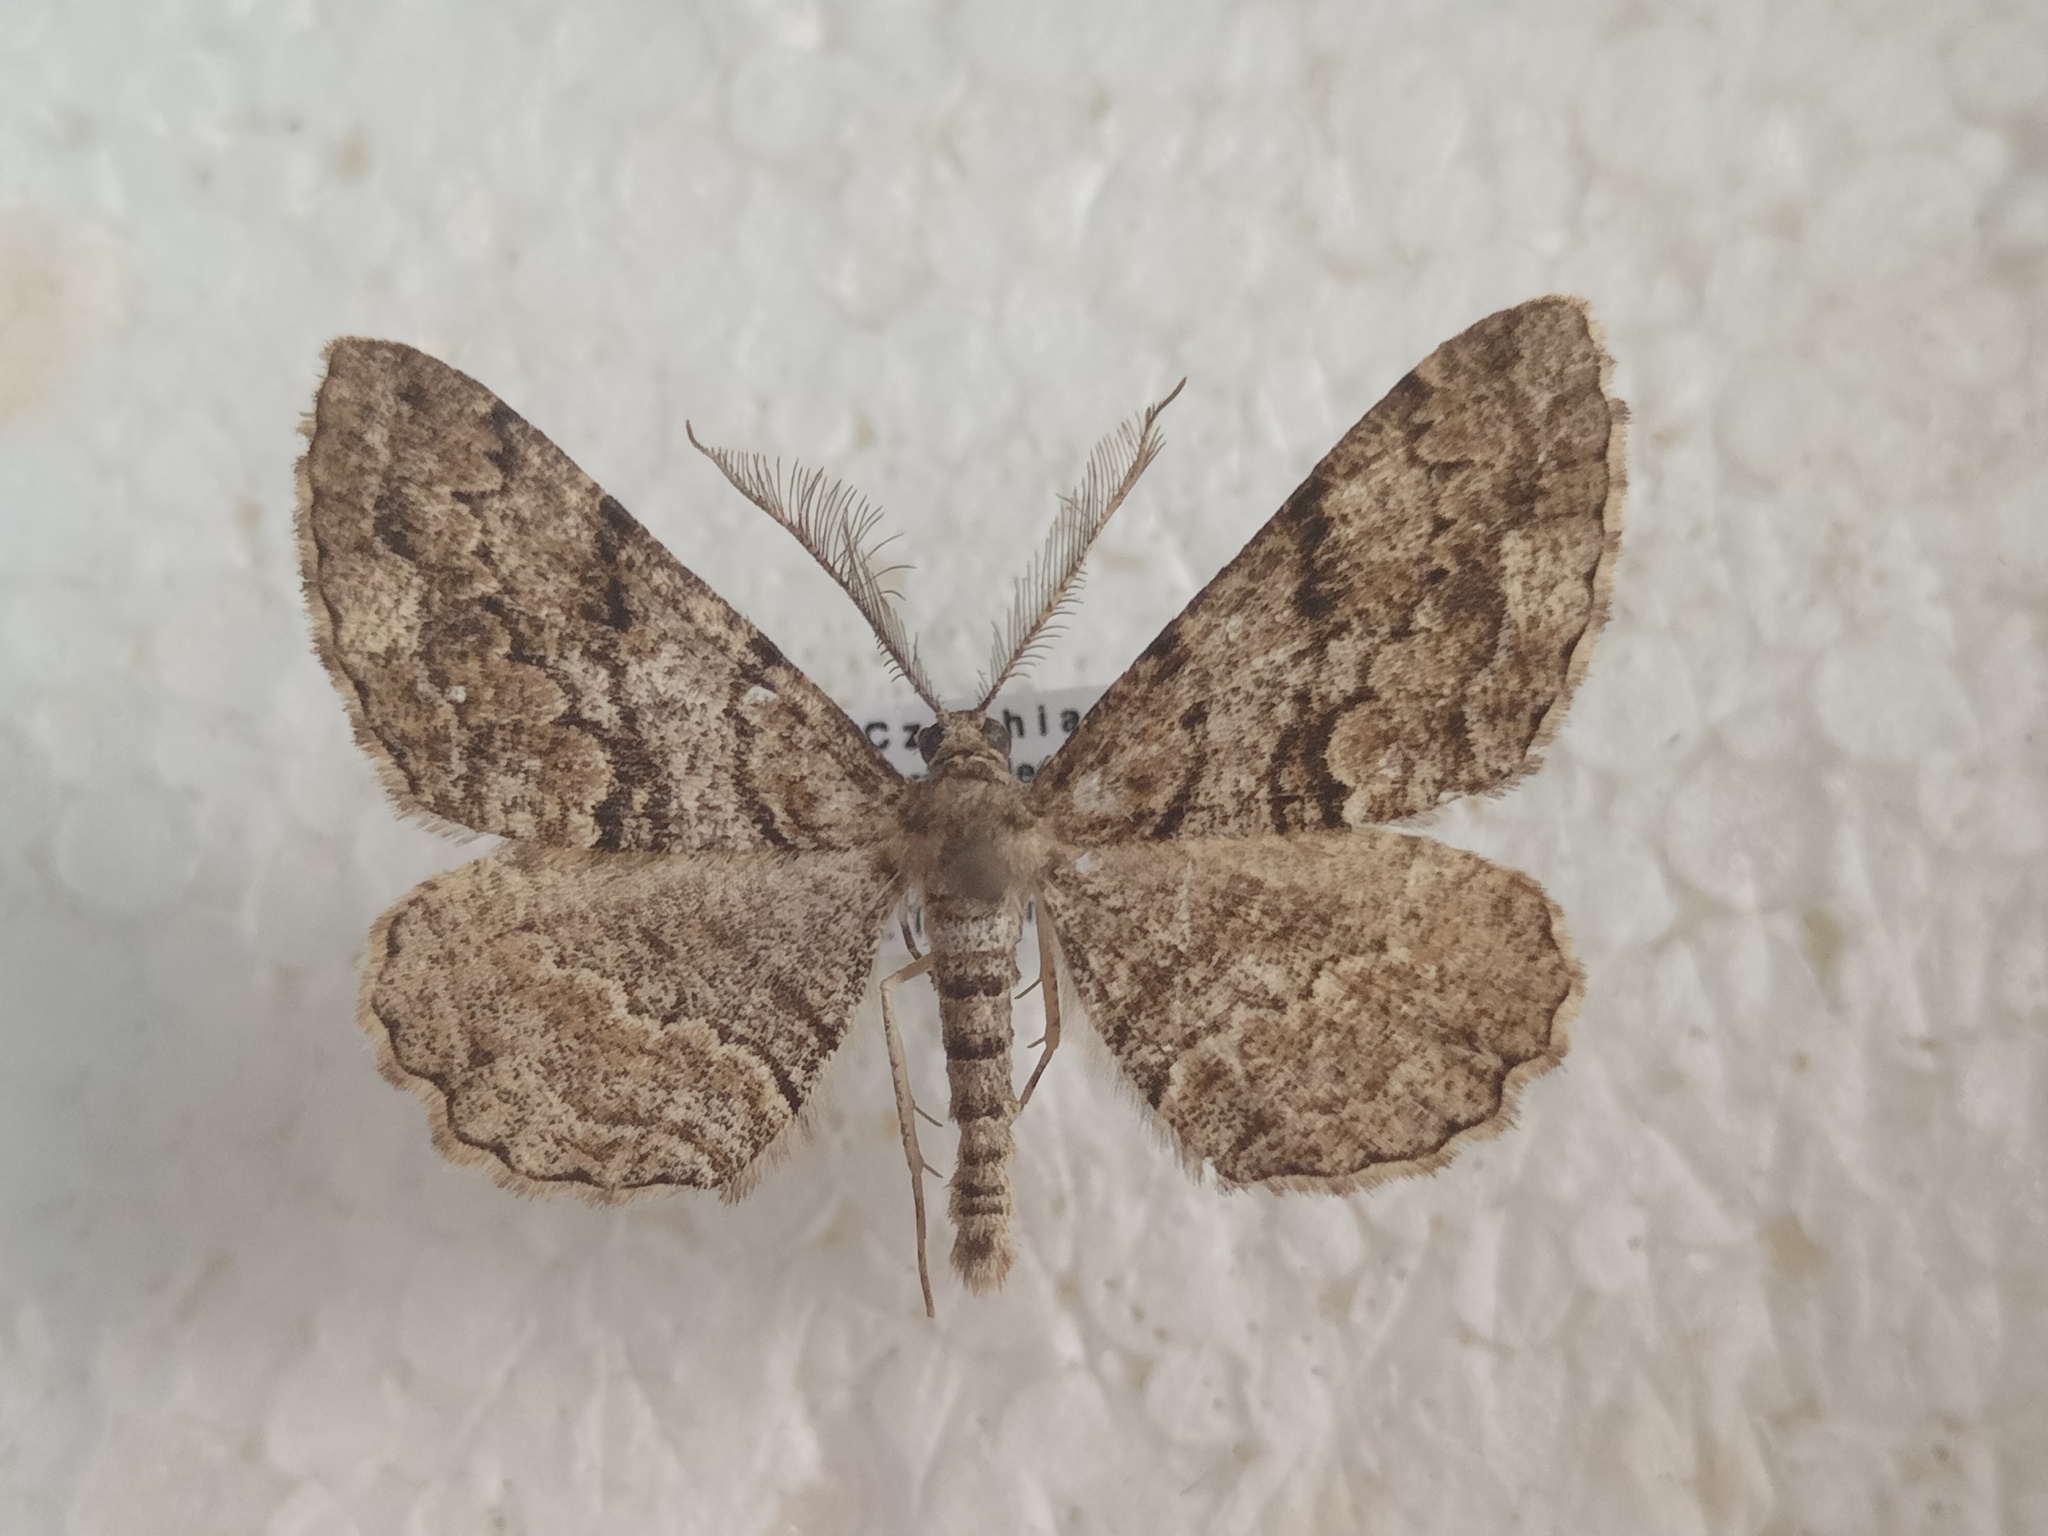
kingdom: Animalia
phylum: Arthropoda
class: Insecta
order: Lepidoptera
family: Geometridae
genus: Peribatodes
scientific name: Peribatodes secundaria
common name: Feathered beauty
